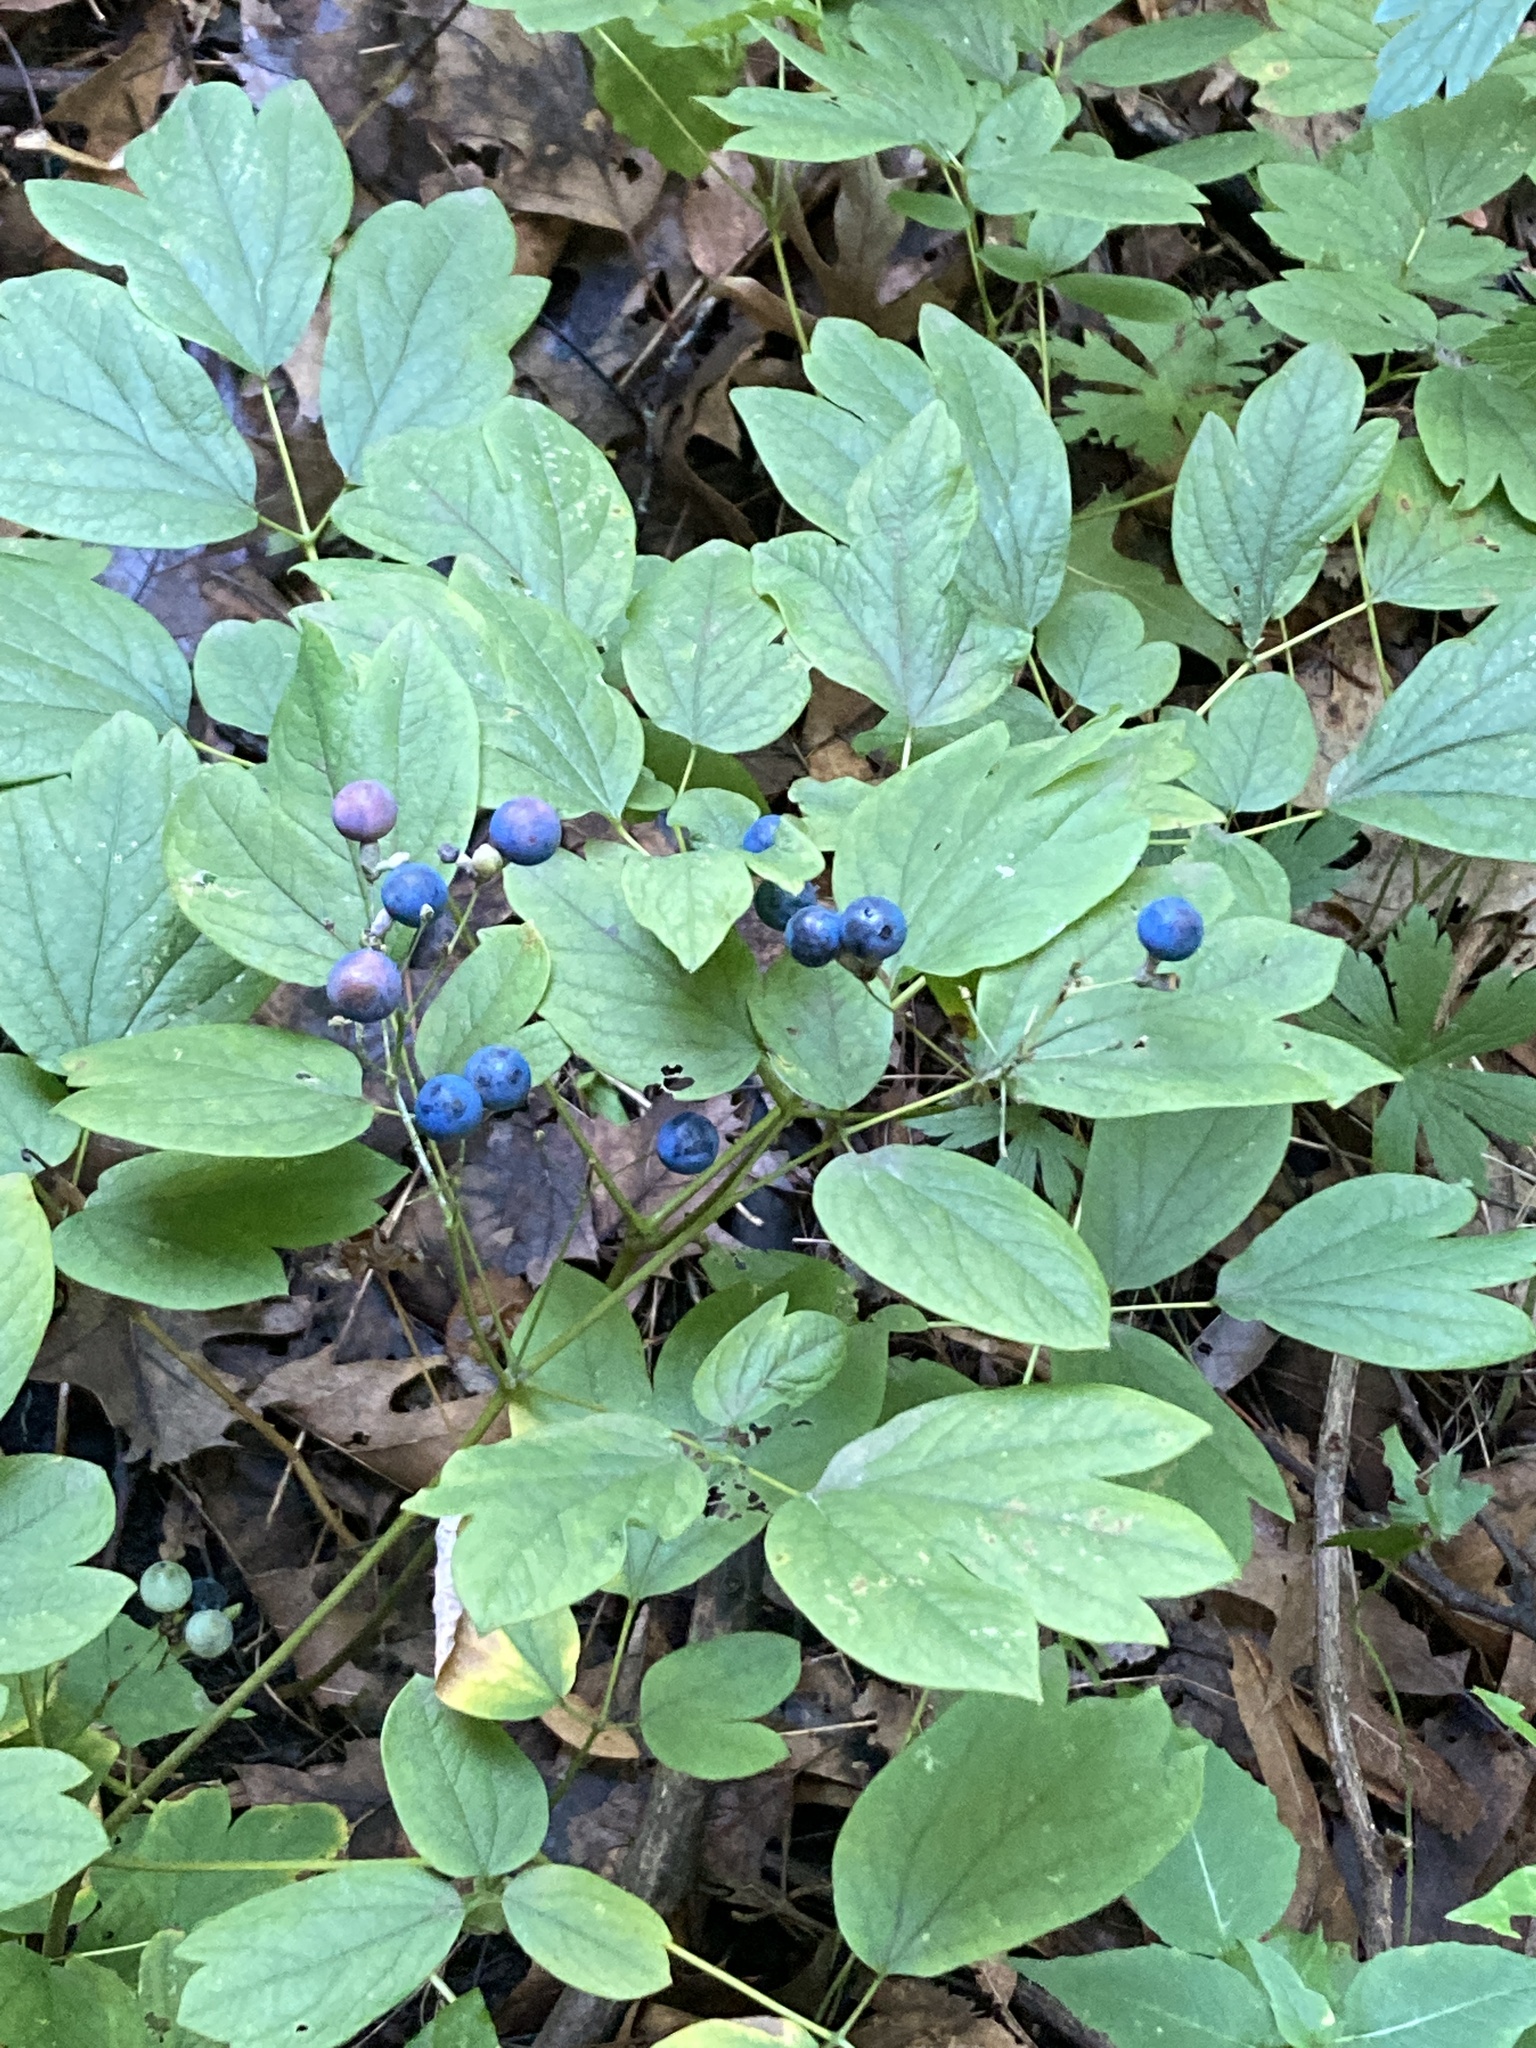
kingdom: Plantae
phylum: Tracheophyta
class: Magnoliopsida
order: Ranunculales
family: Berberidaceae
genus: Caulophyllum
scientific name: Caulophyllum thalictroides
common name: Blue cohosh
